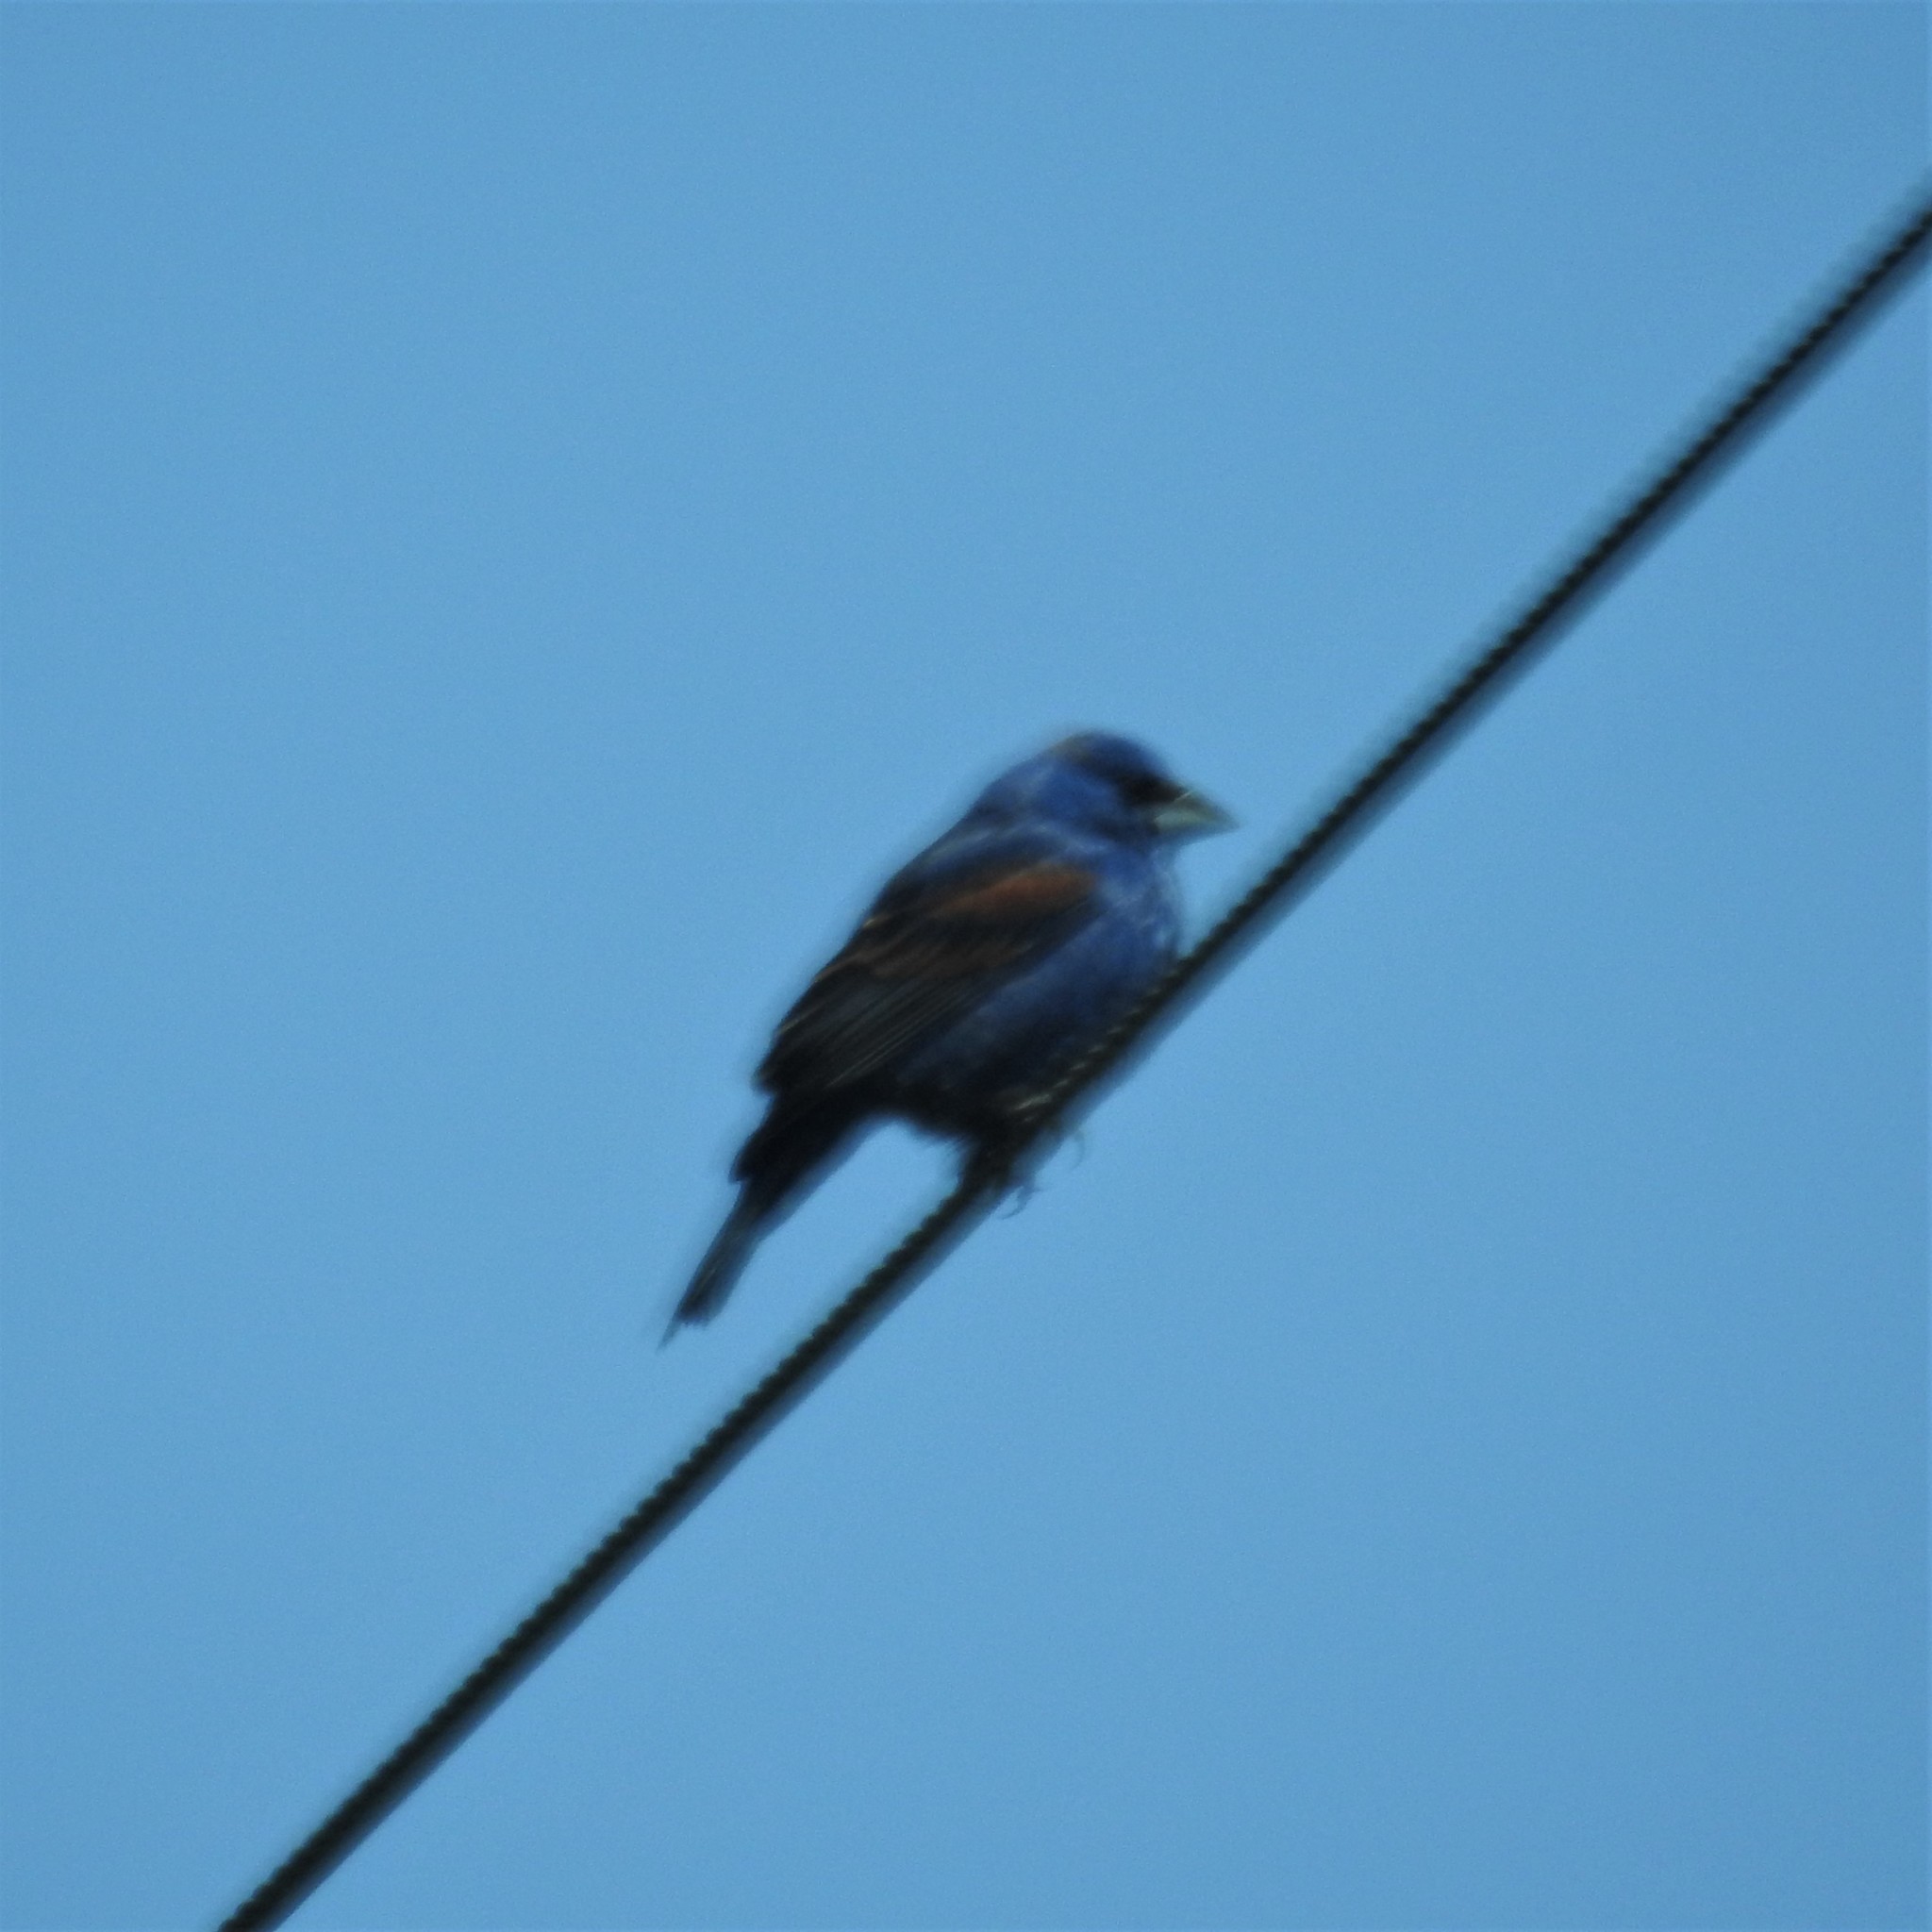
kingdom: Animalia
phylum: Chordata
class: Aves
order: Passeriformes
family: Cardinalidae
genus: Passerina
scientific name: Passerina caerulea
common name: Blue grosbeak
